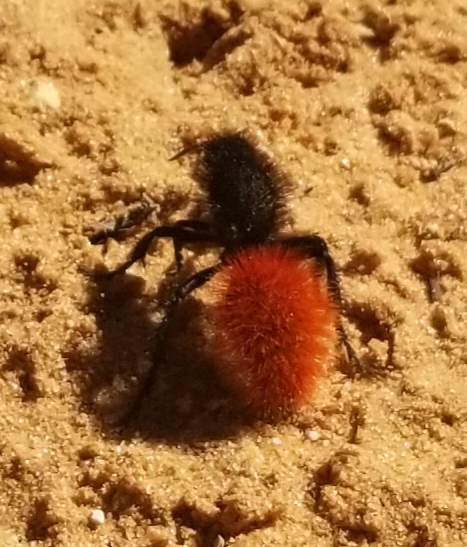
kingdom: Animalia
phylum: Arthropoda
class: Insecta
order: Hymenoptera
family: Mutillidae
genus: Dasymutilla
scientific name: Dasymutilla magnifica
